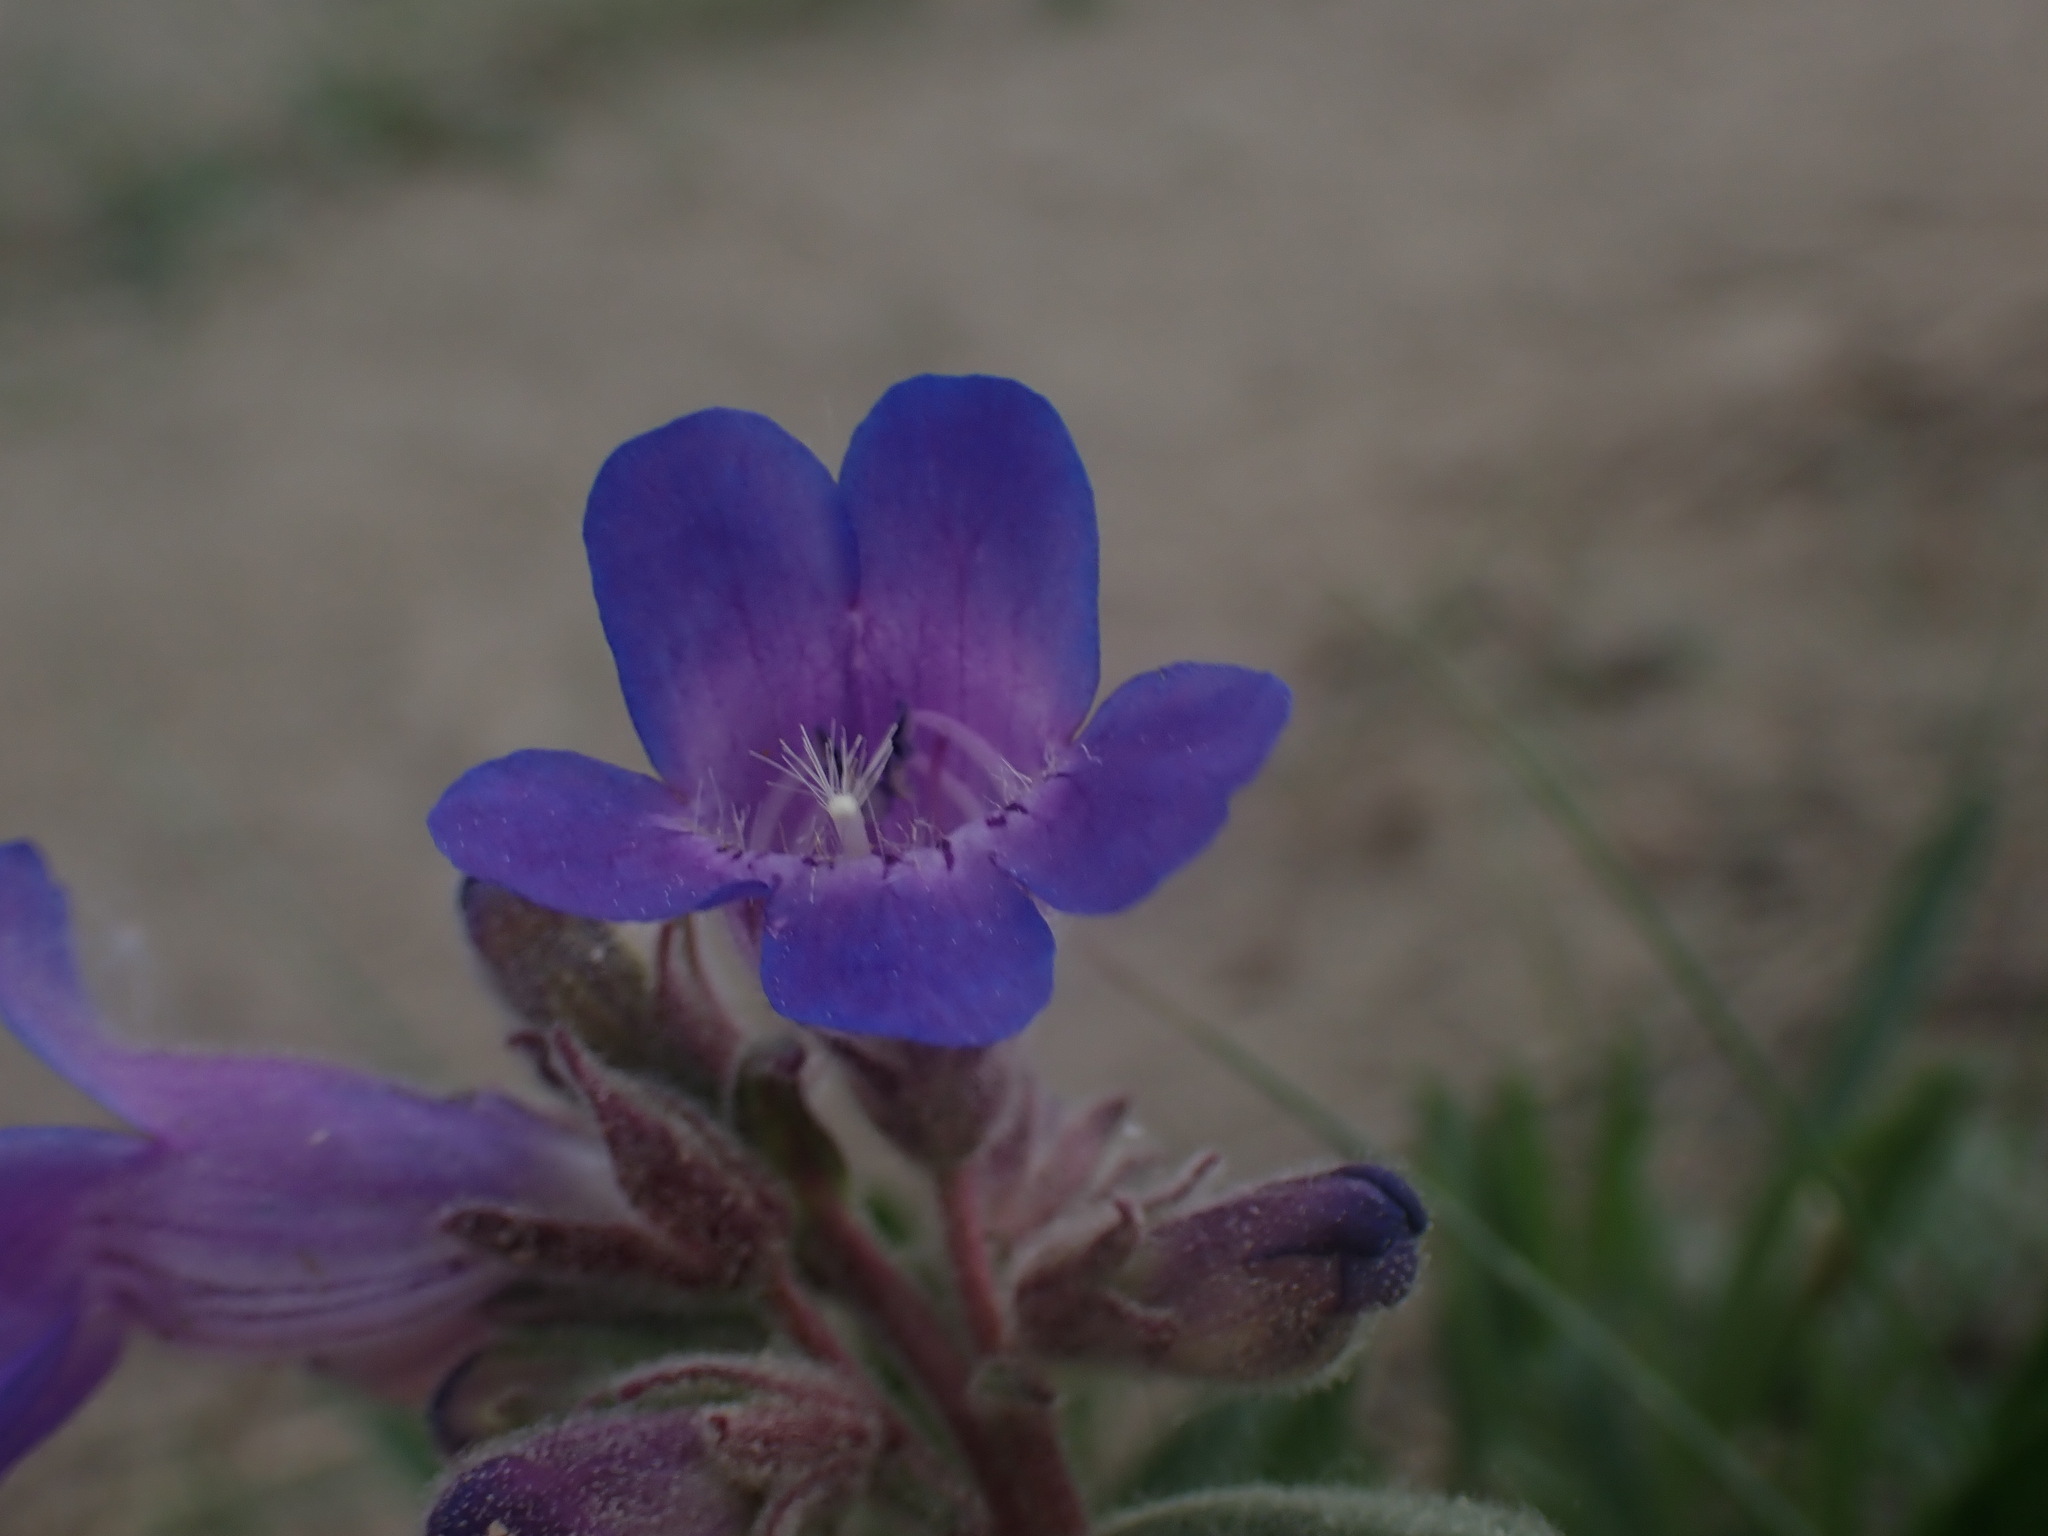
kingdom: Plantae
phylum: Tracheophyta
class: Magnoliopsida
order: Lamiales
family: Plantaginaceae
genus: Penstemon
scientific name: Penstemon gormanii
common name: Gorman's beardtongue
